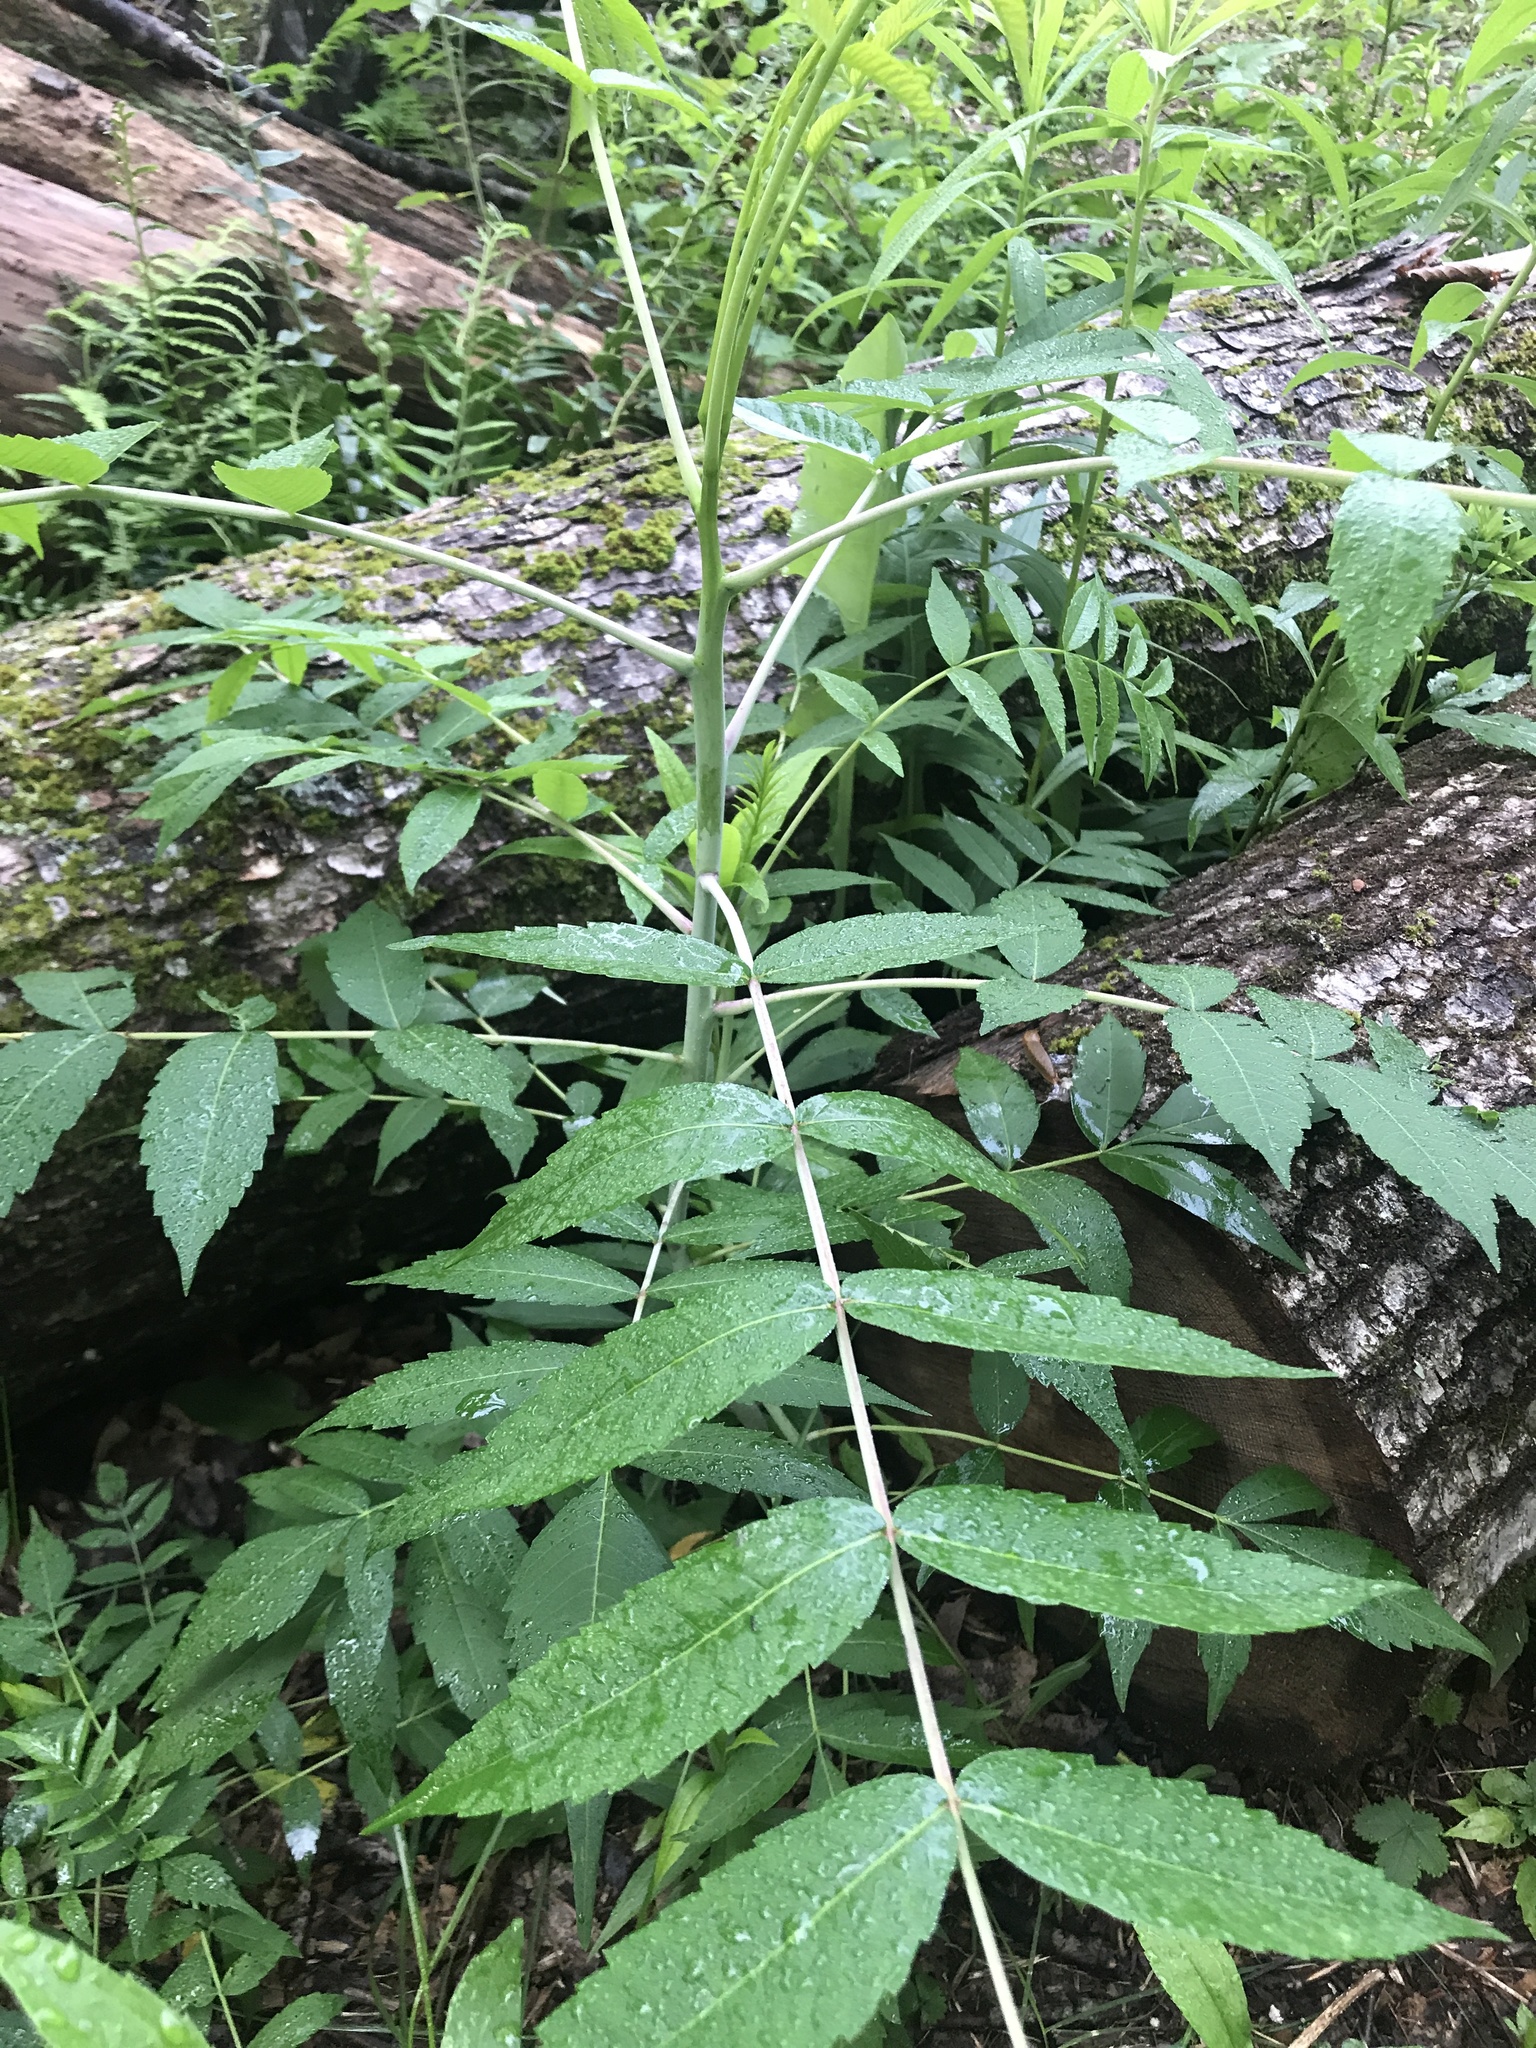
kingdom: Plantae
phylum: Tracheophyta
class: Magnoliopsida
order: Sapindales
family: Anacardiaceae
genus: Rhus
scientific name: Rhus glabra
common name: Scarlet sumac
